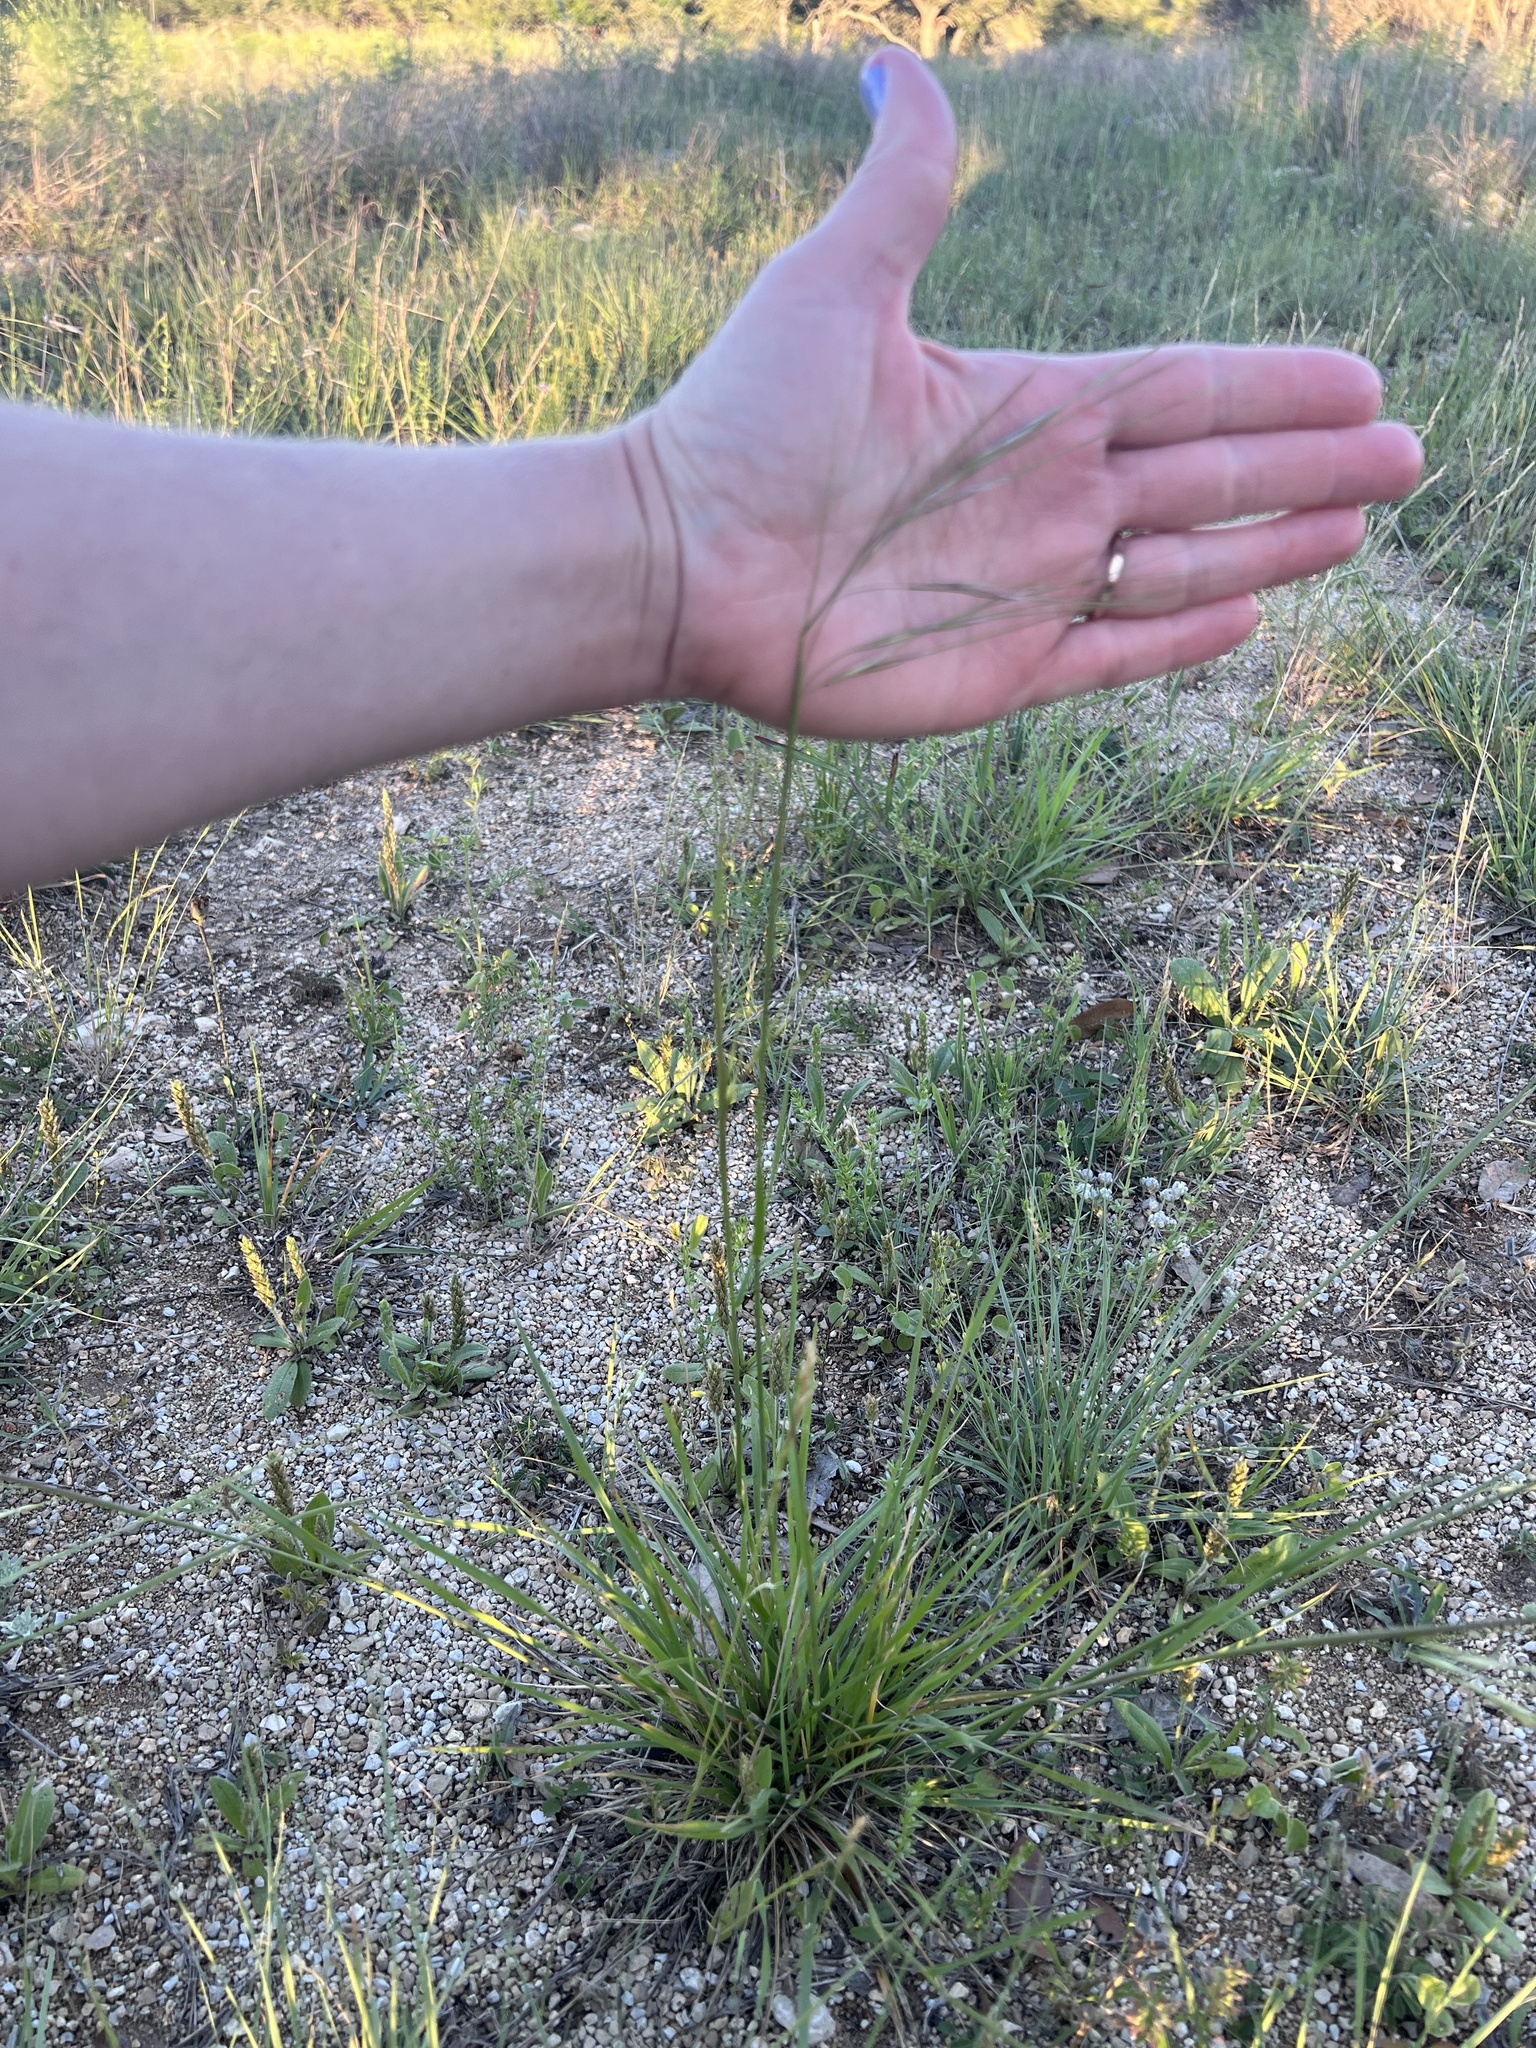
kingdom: Plantae
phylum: Tracheophyta
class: Liliopsida
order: Poales
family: Poaceae
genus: Nassella
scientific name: Nassella leucotricha
